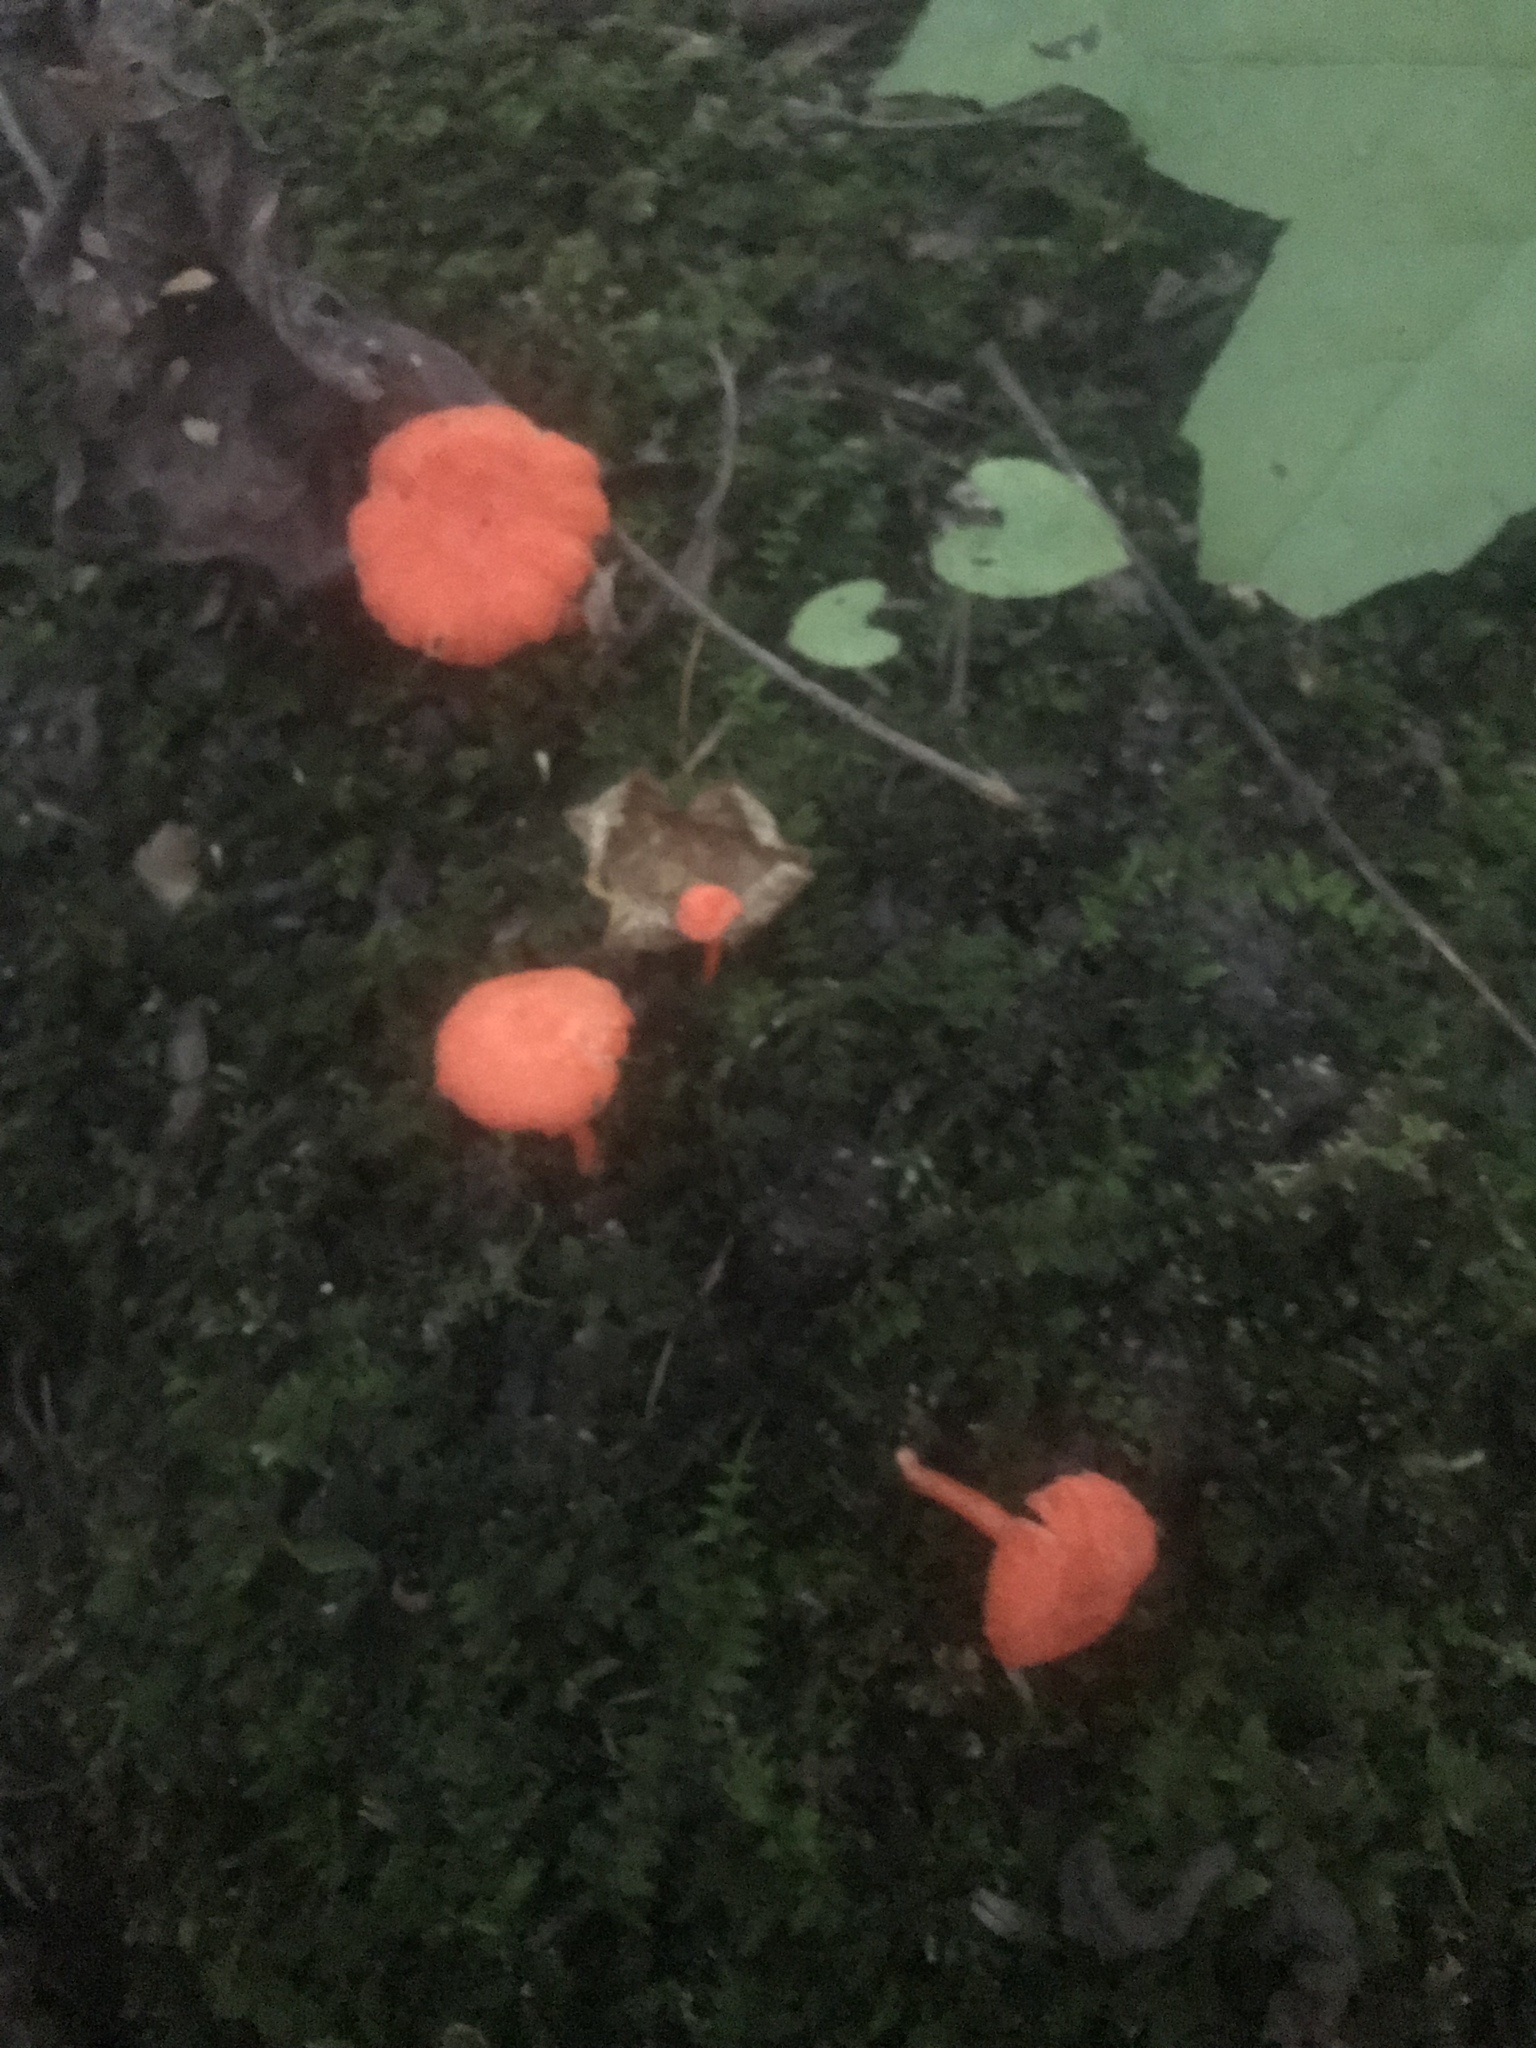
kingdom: Fungi
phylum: Basidiomycota
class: Agaricomycetes
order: Cantharellales
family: Hydnaceae
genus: Cantharellus
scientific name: Cantharellus cinnabarinus
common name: Cinnabar chanterelle
